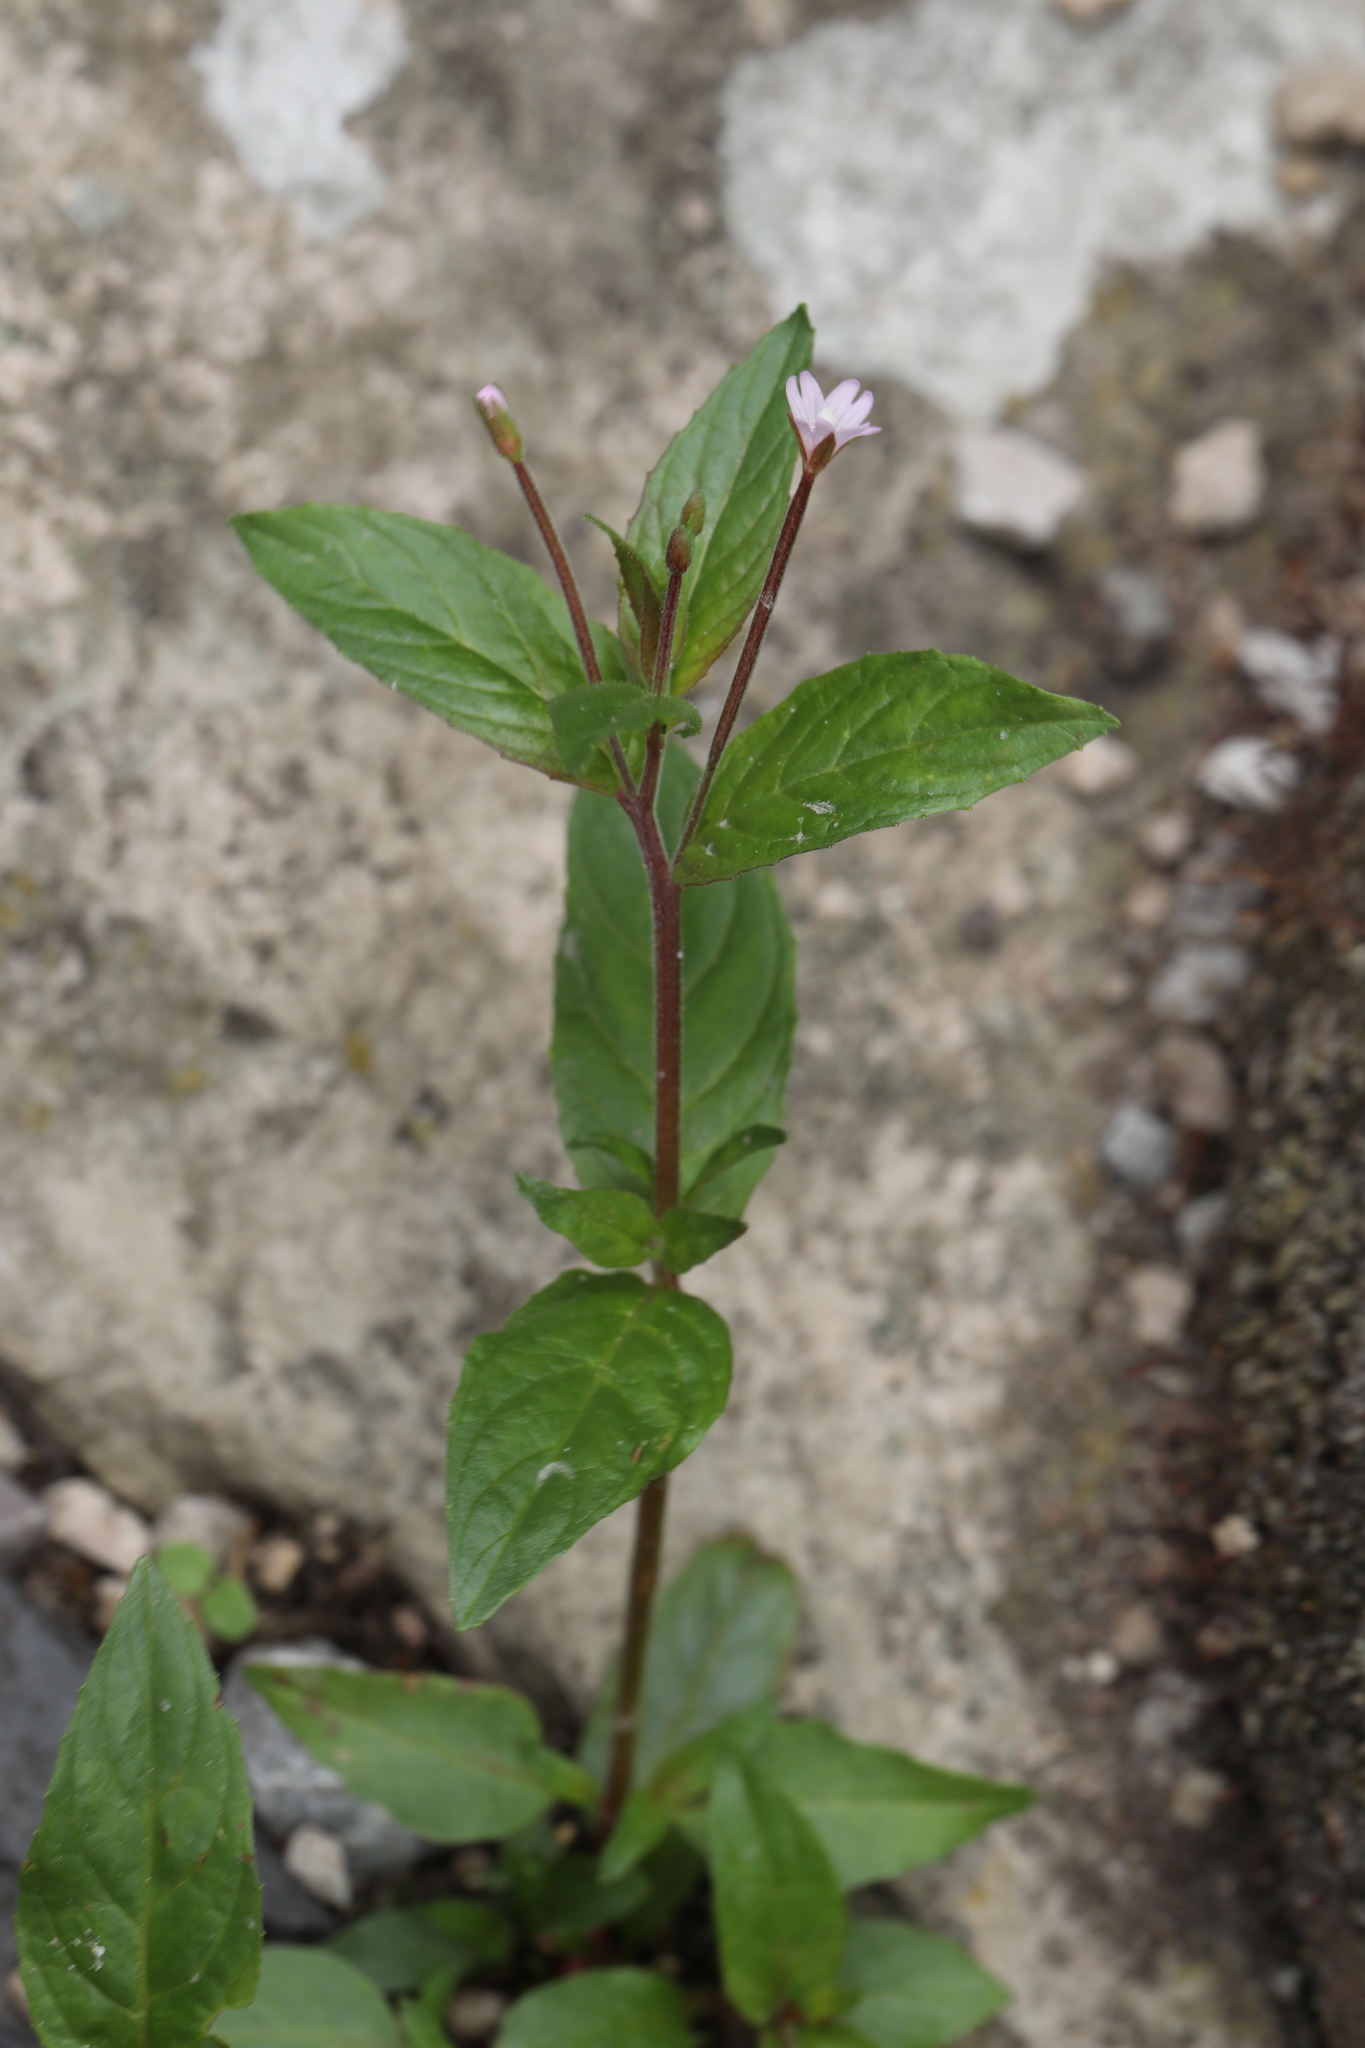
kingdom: Plantae
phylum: Tracheophyta
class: Magnoliopsida
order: Myrtales
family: Onagraceae
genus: Epilobium
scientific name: Epilobium montanum
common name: Broad-leaved willowherb
